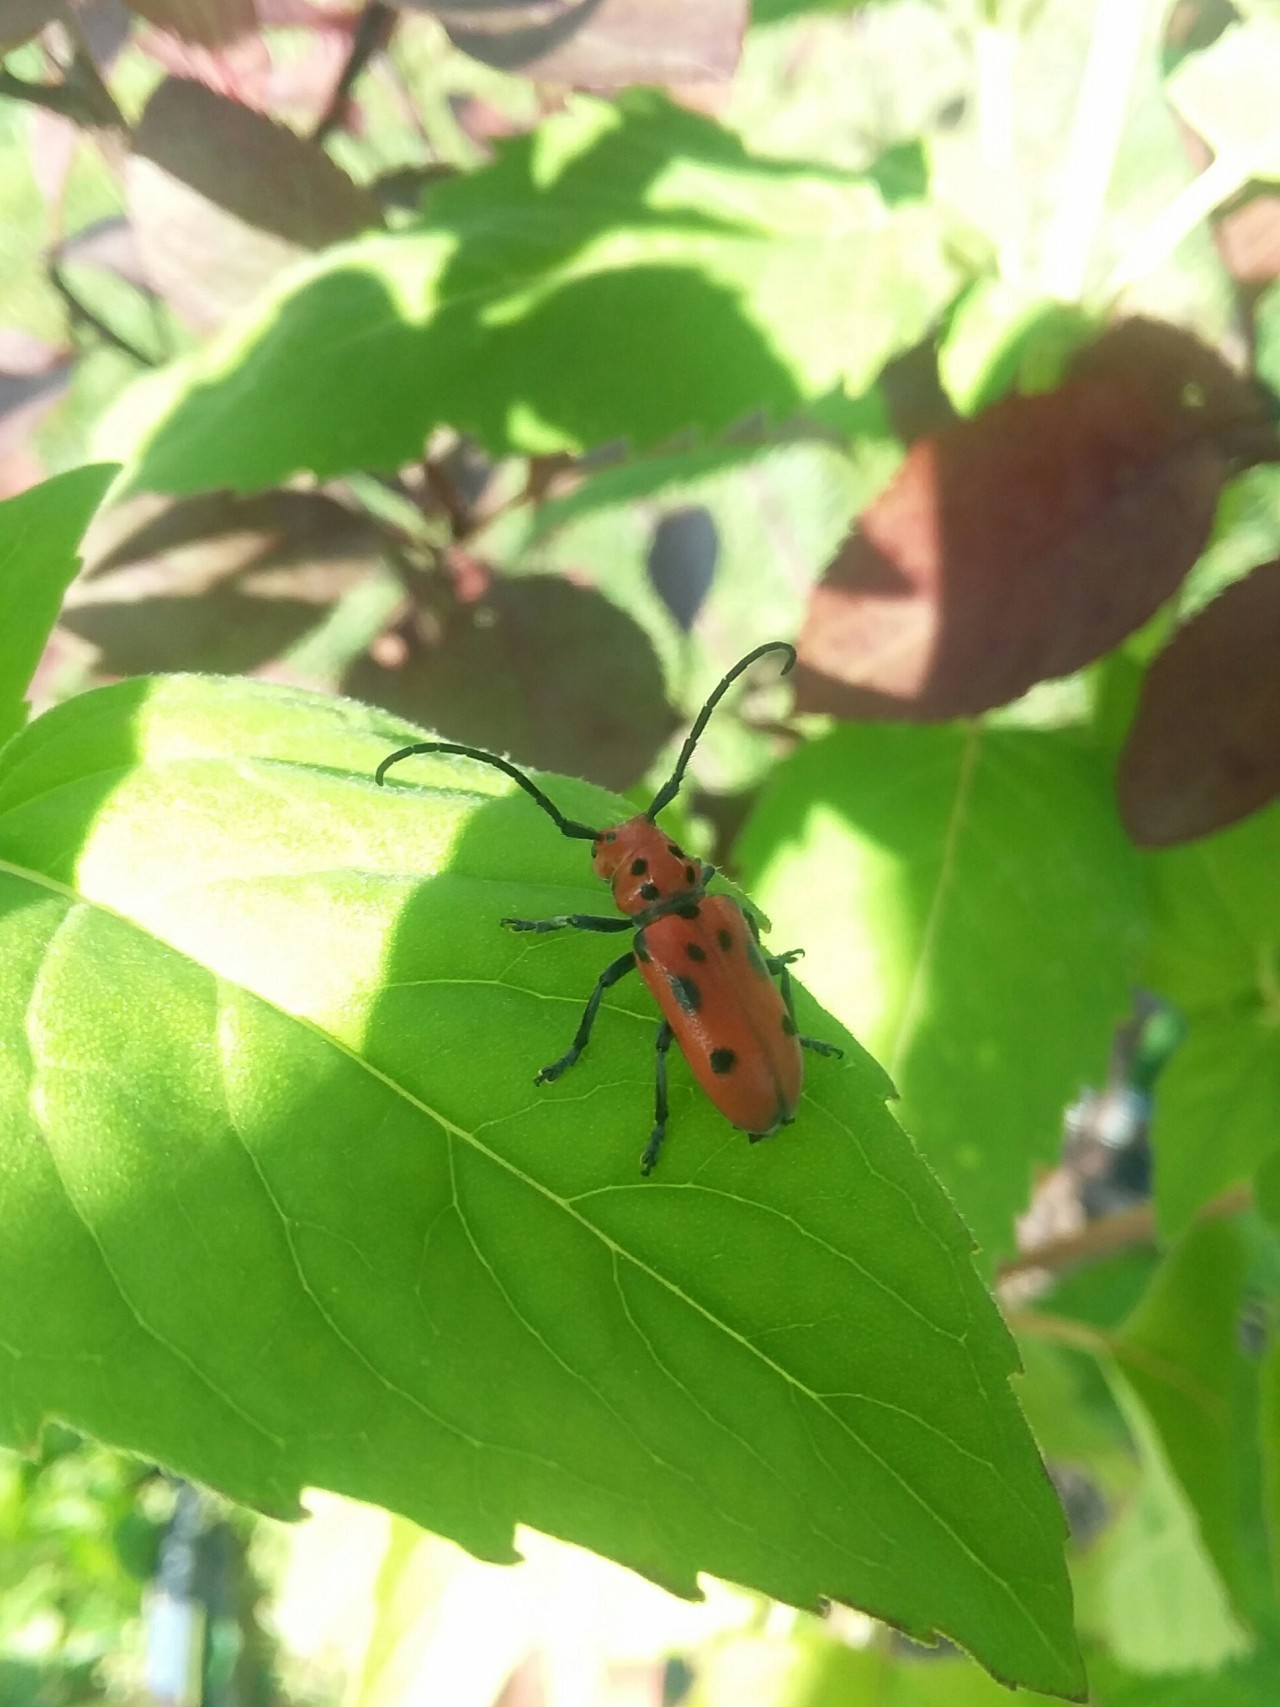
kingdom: Animalia
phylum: Arthropoda
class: Insecta
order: Coleoptera
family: Cerambycidae
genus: Tetraopes
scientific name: Tetraopes tetrophthalmus
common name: Red milkweed beetle
